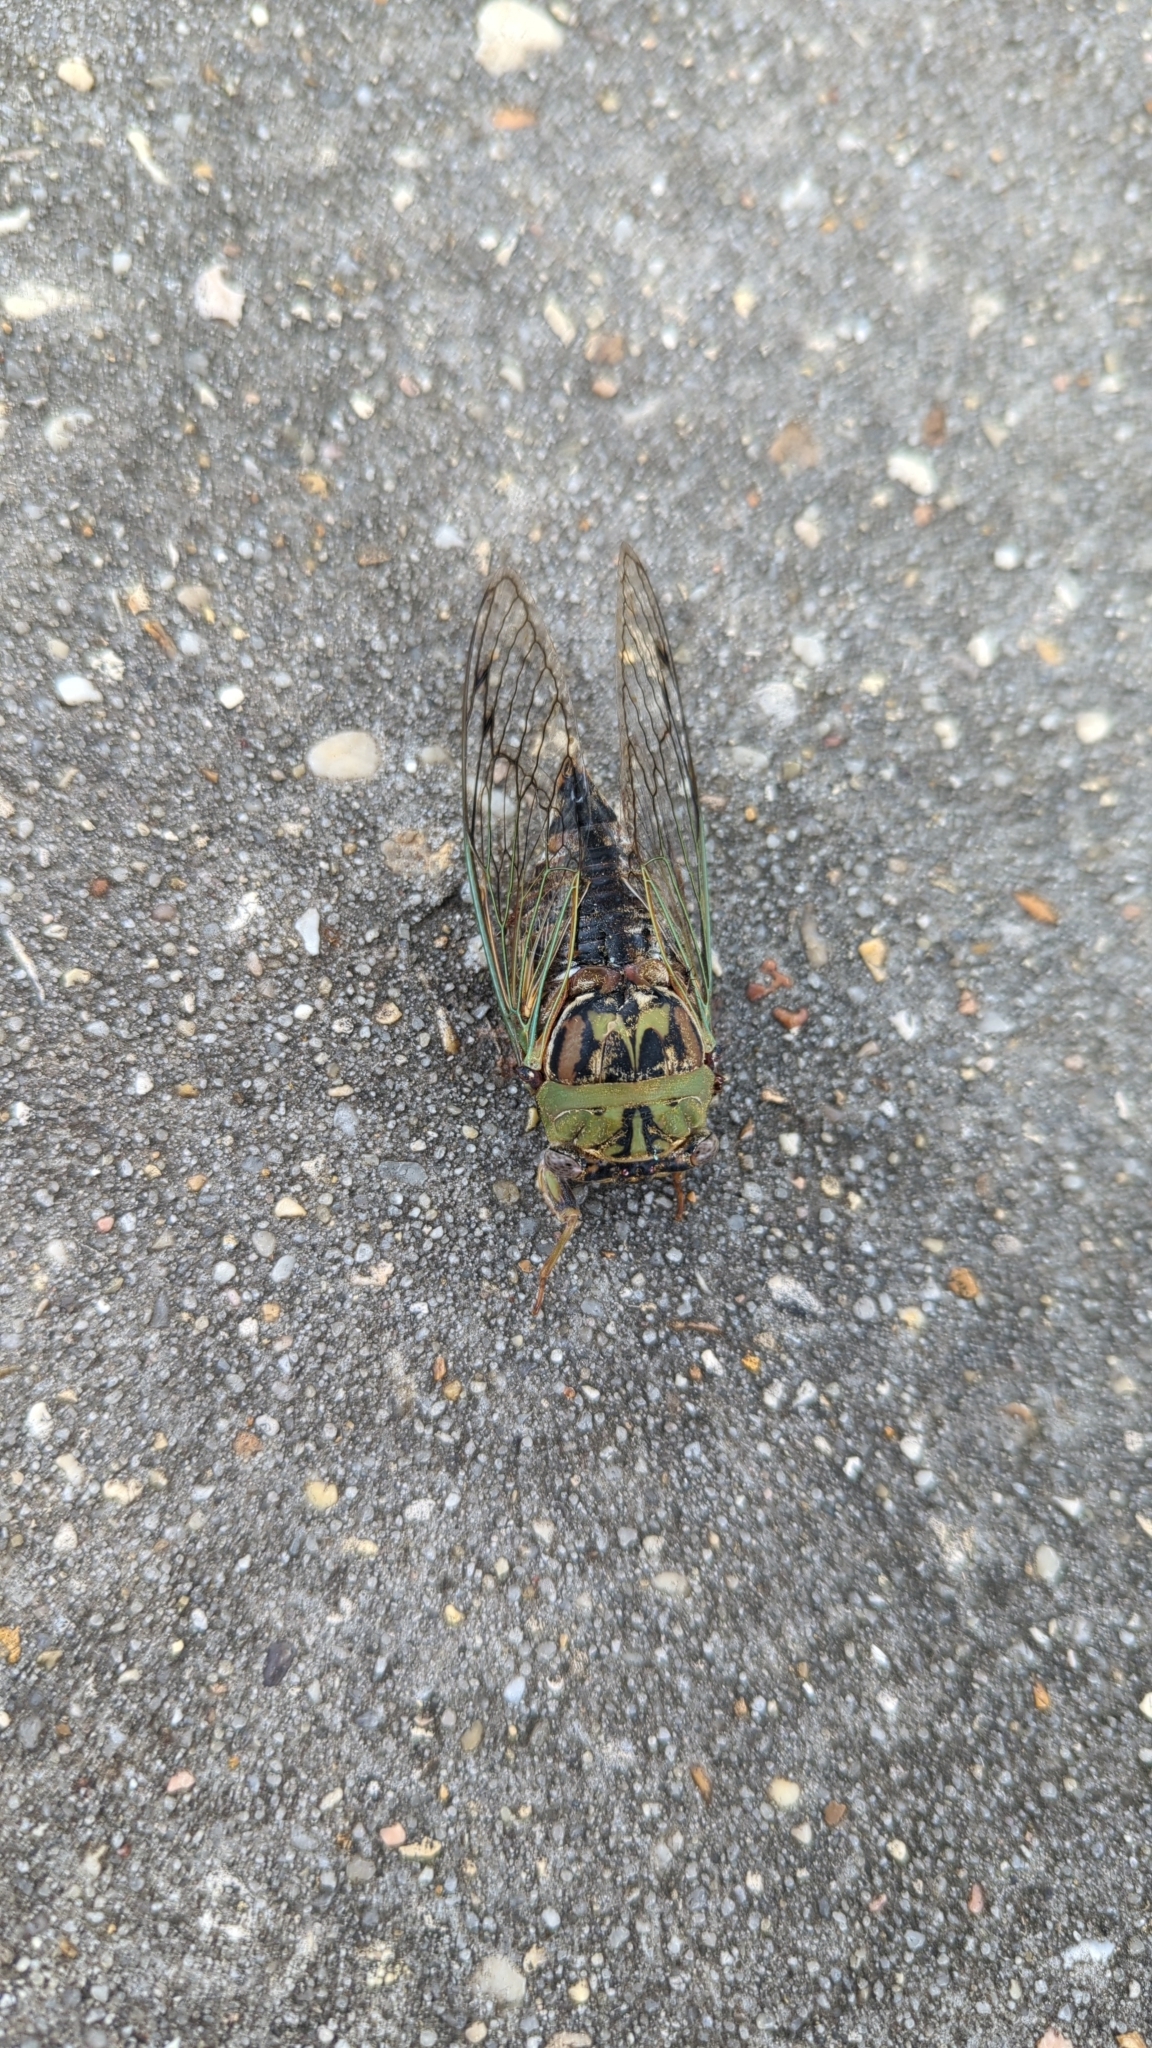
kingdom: Animalia
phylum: Arthropoda
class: Insecta
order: Hemiptera
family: Cicadidae
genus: Megatibicen
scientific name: Megatibicen resh
